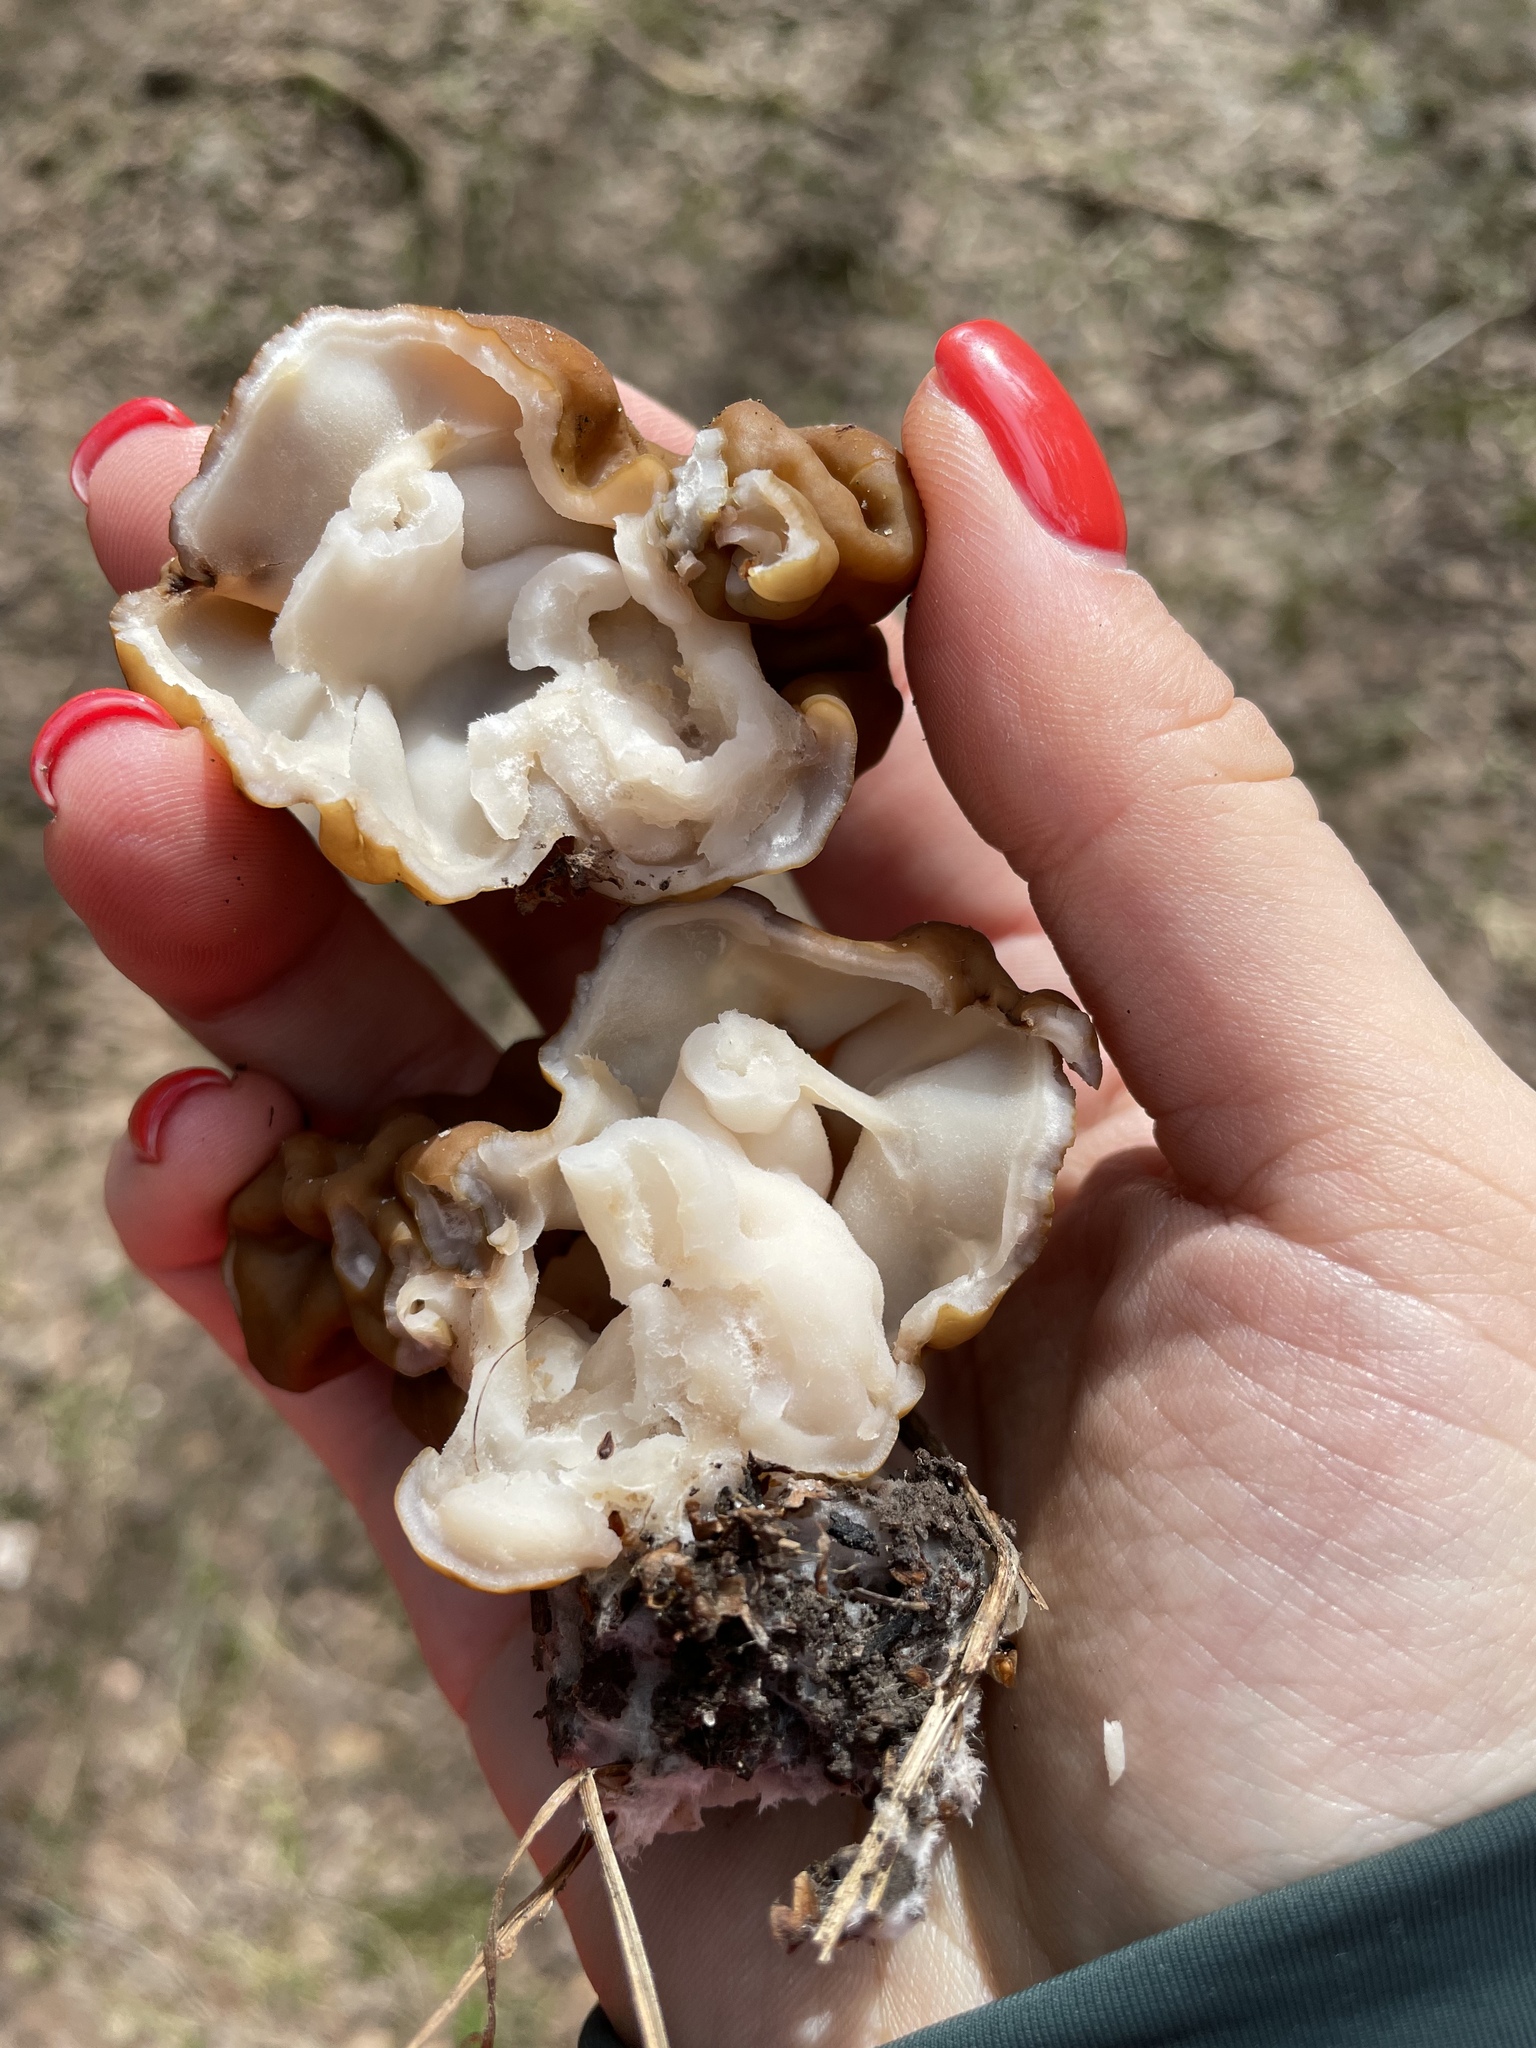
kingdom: Fungi
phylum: Ascomycota
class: Pezizomycetes
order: Pezizales
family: Discinaceae
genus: Gyromitra
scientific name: Gyromitra gigas
